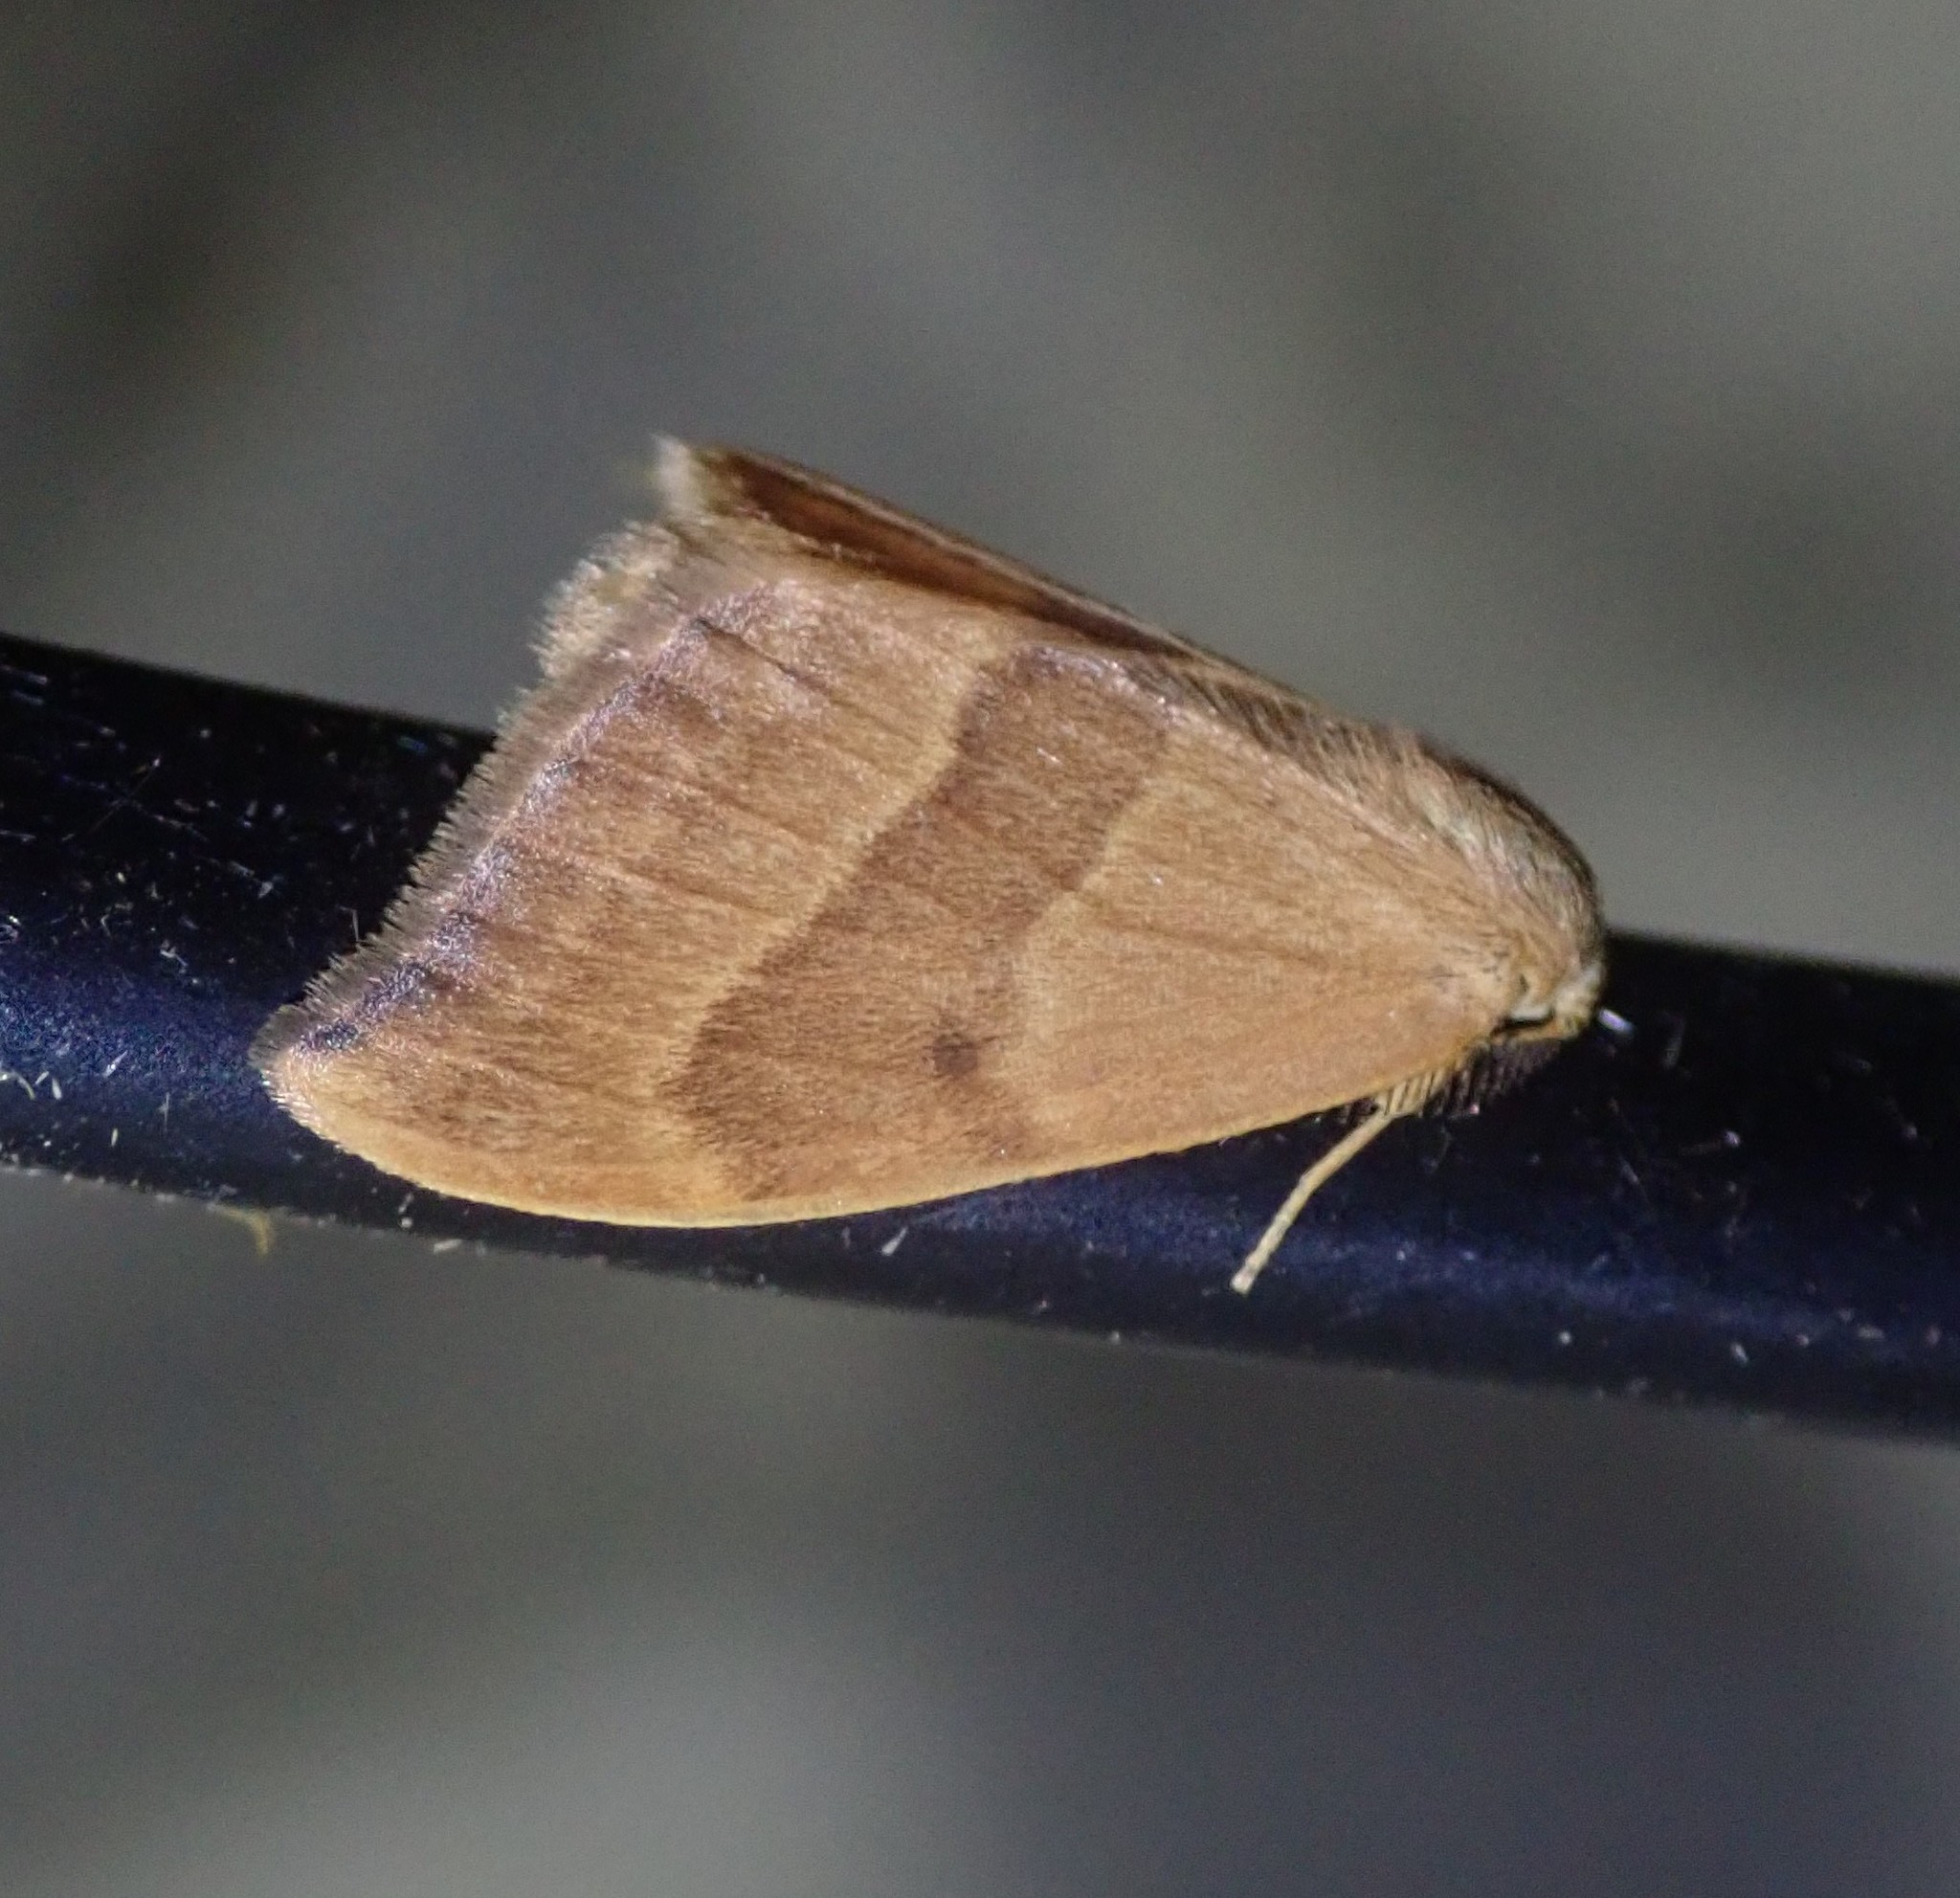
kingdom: Animalia
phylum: Arthropoda
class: Insecta
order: Lepidoptera
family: Drepanidae
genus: Watsonalla
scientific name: Watsonalla cultraria
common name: Barred hook-tip
